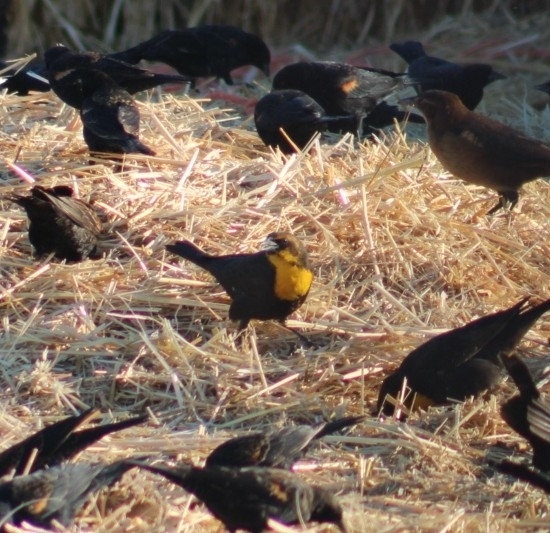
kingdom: Animalia
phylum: Chordata
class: Aves
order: Passeriformes
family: Icteridae
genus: Xanthocephalus
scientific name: Xanthocephalus xanthocephalus
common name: Yellow-headed blackbird
